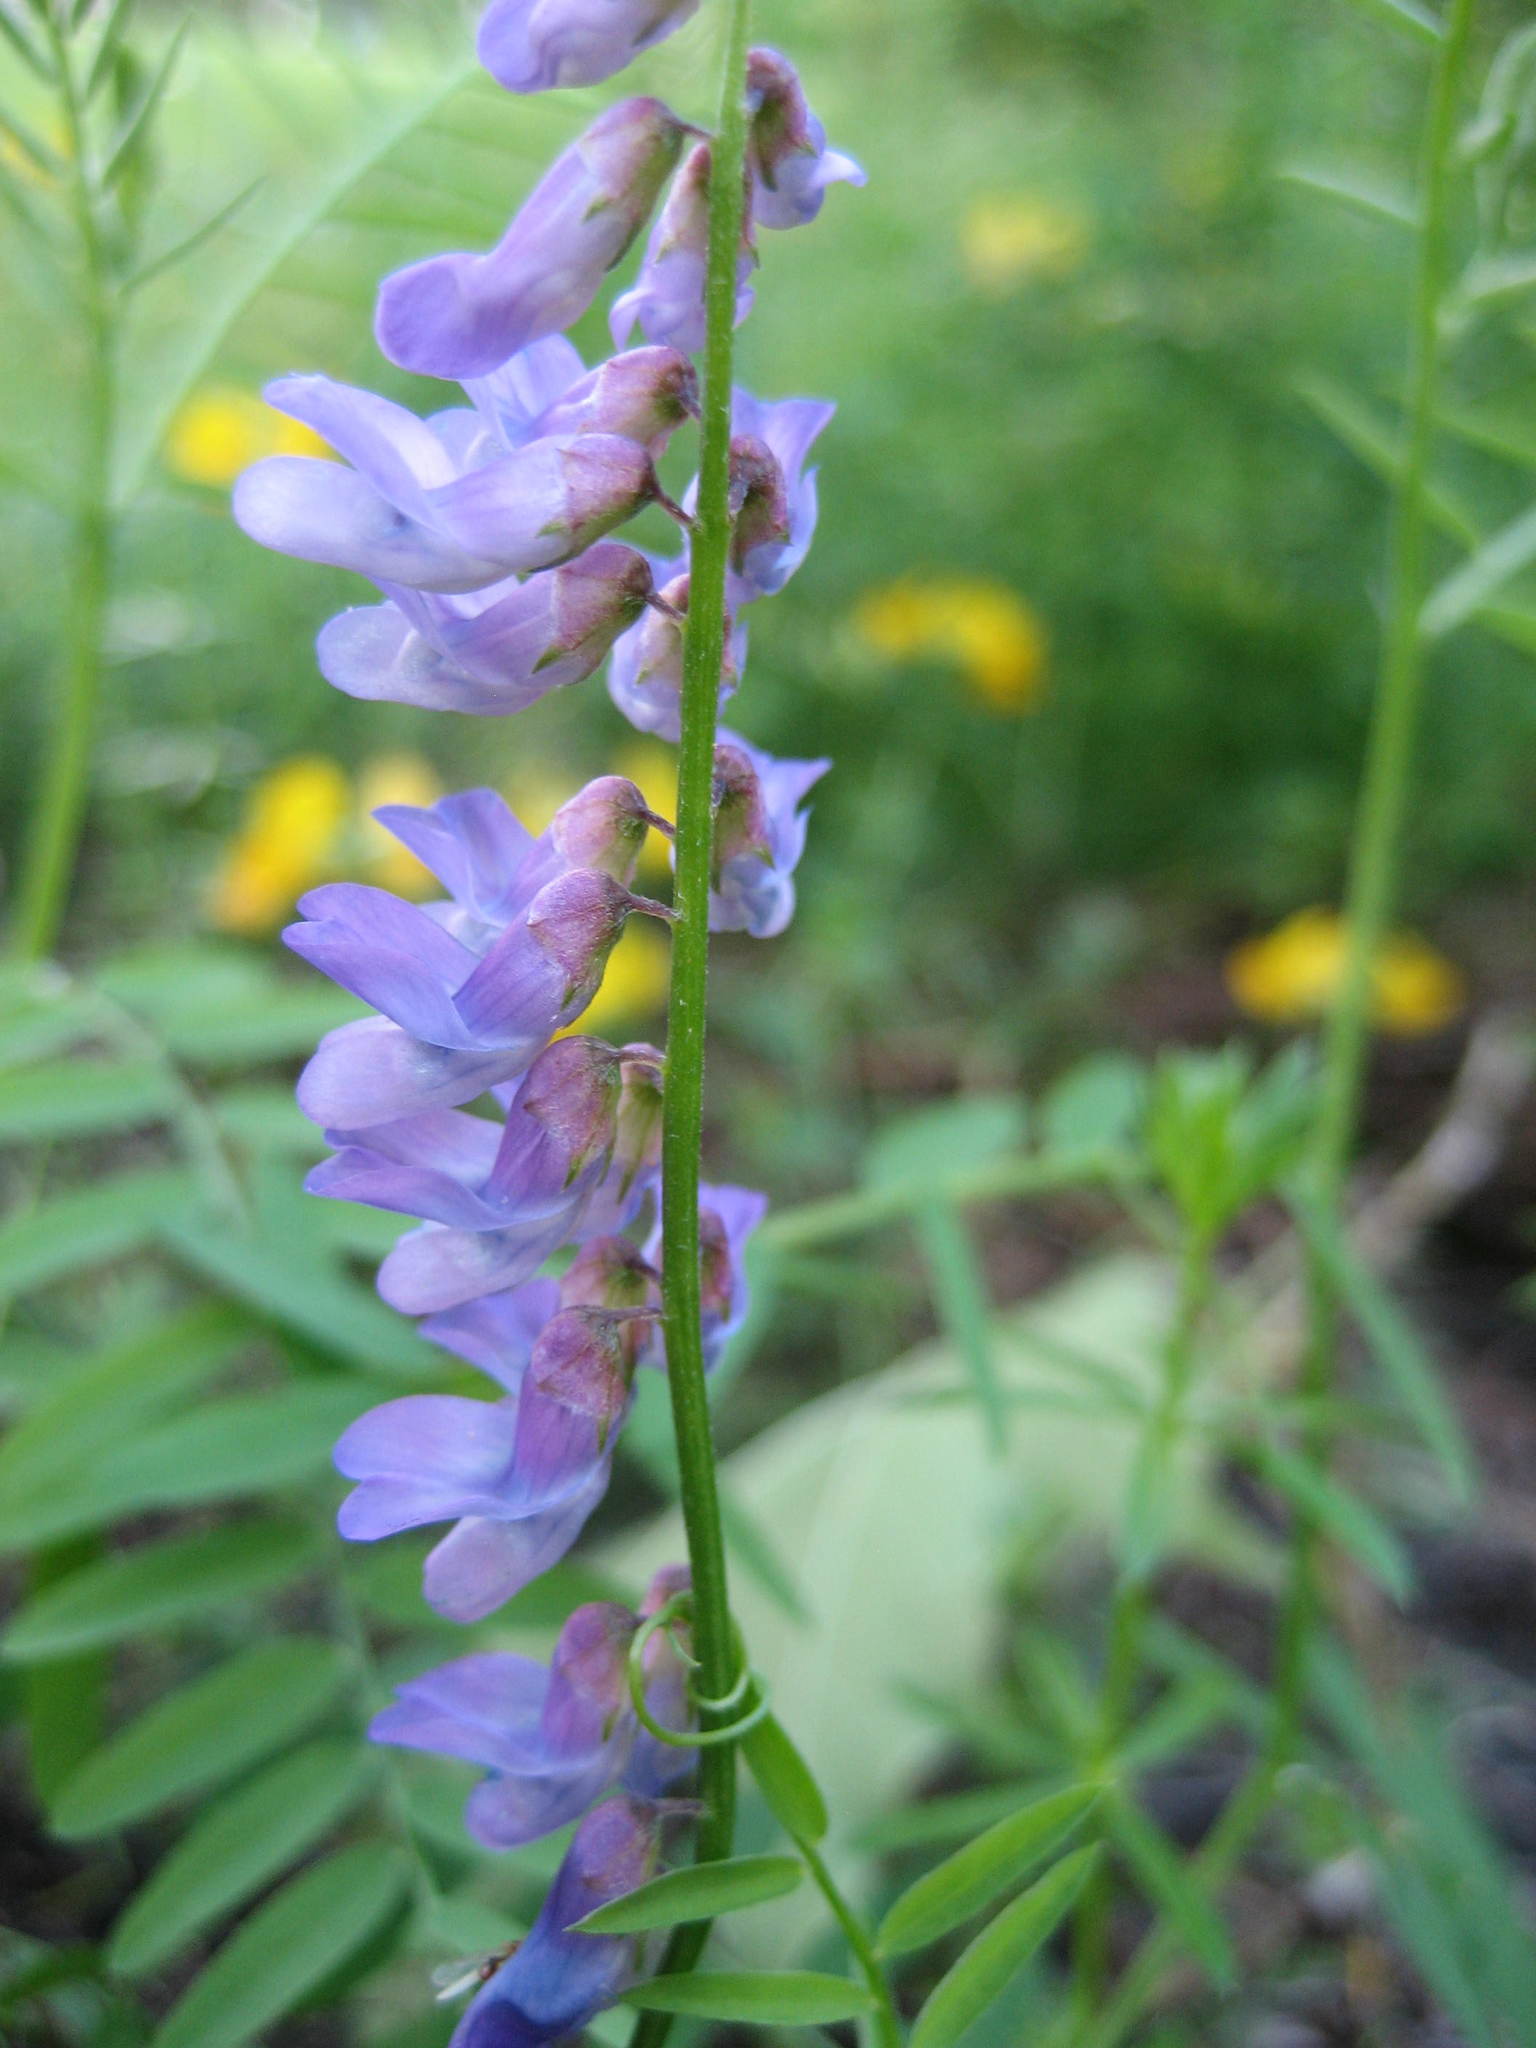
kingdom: Plantae
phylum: Tracheophyta
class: Magnoliopsida
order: Fabales
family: Fabaceae
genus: Vicia
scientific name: Vicia cracca
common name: Bird vetch
